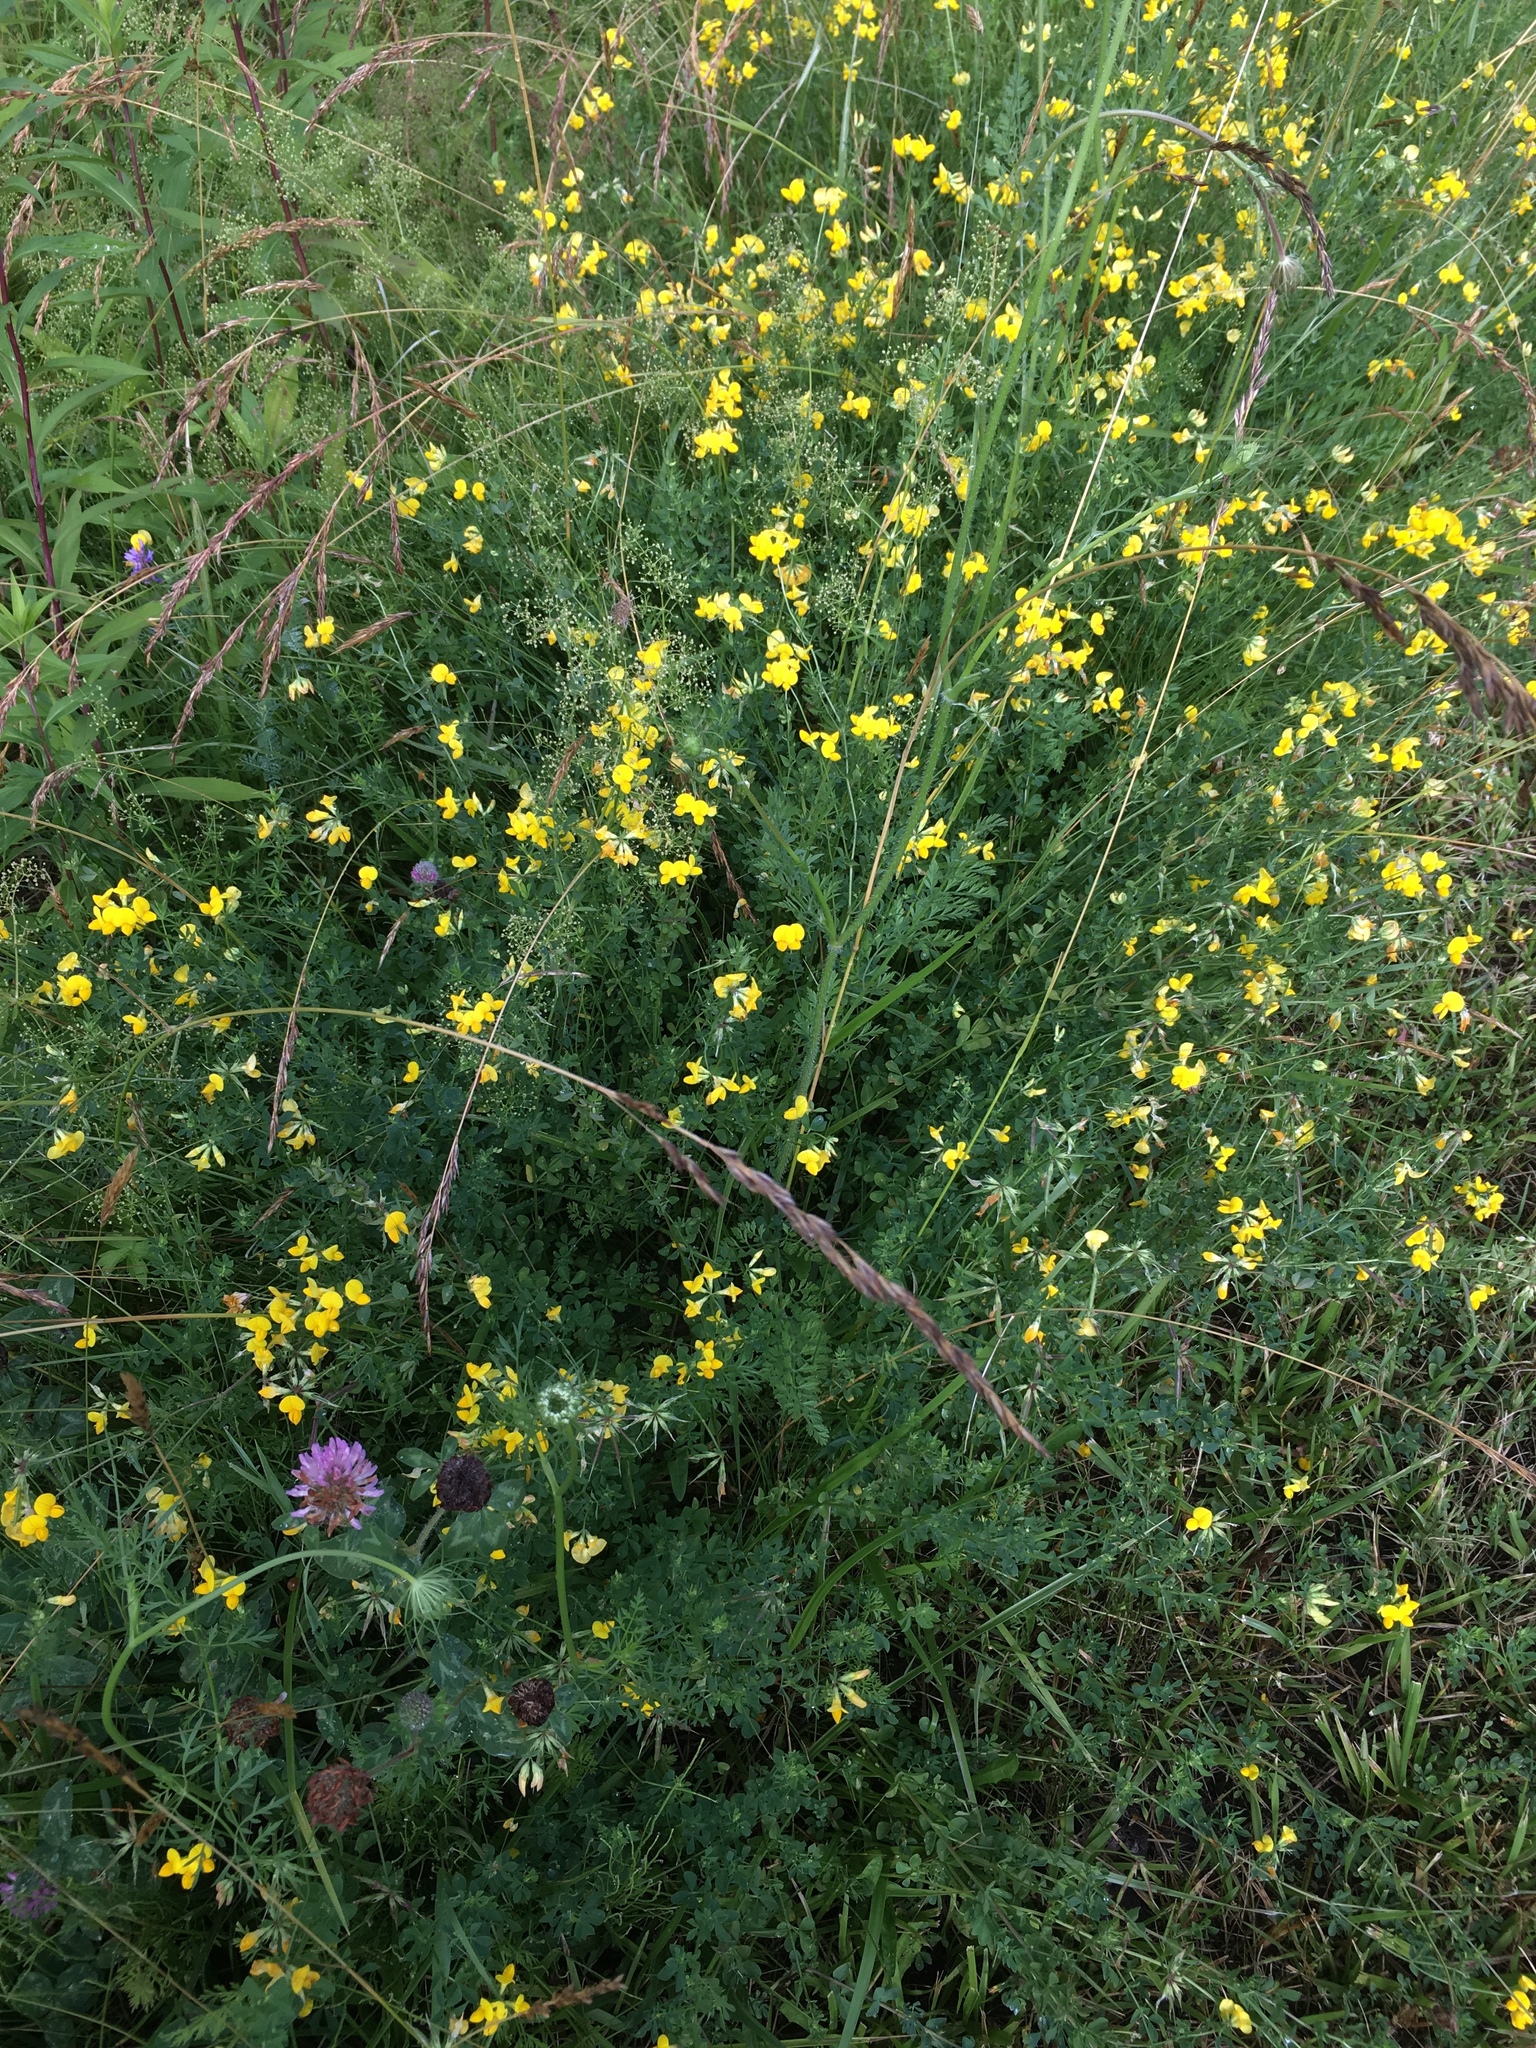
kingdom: Plantae
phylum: Tracheophyta
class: Magnoliopsida
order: Fabales
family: Fabaceae
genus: Lotus
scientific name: Lotus corniculatus
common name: Common bird's-foot-trefoil
